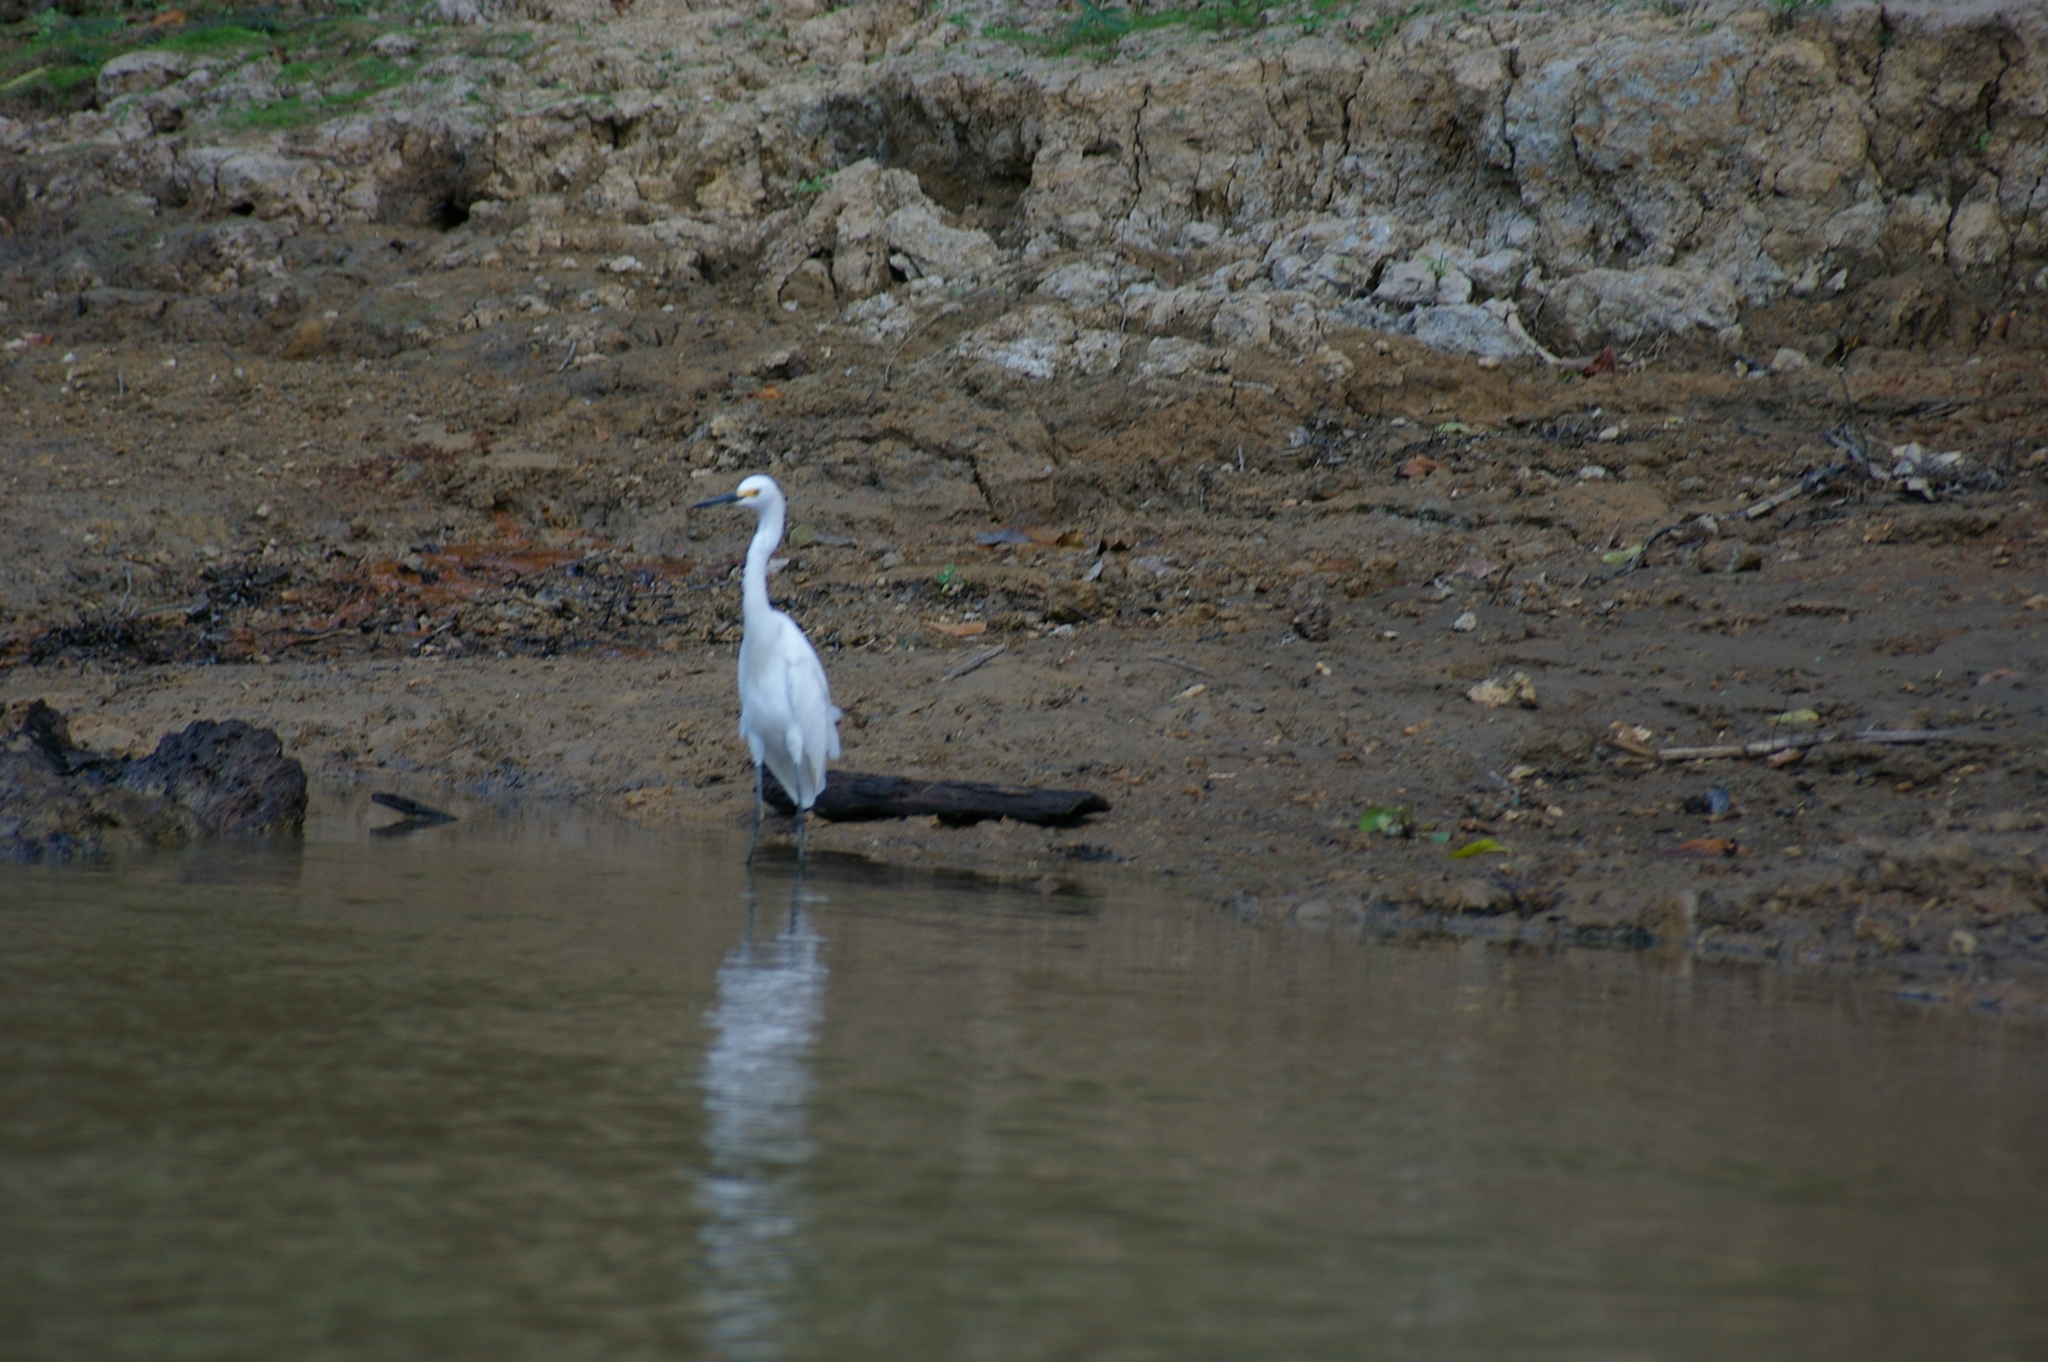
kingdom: Animalia
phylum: Chordata
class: Aves
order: Pelecaniformes
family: Ardeidae
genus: Egretta
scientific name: Egretta thula
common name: Snowy egret
